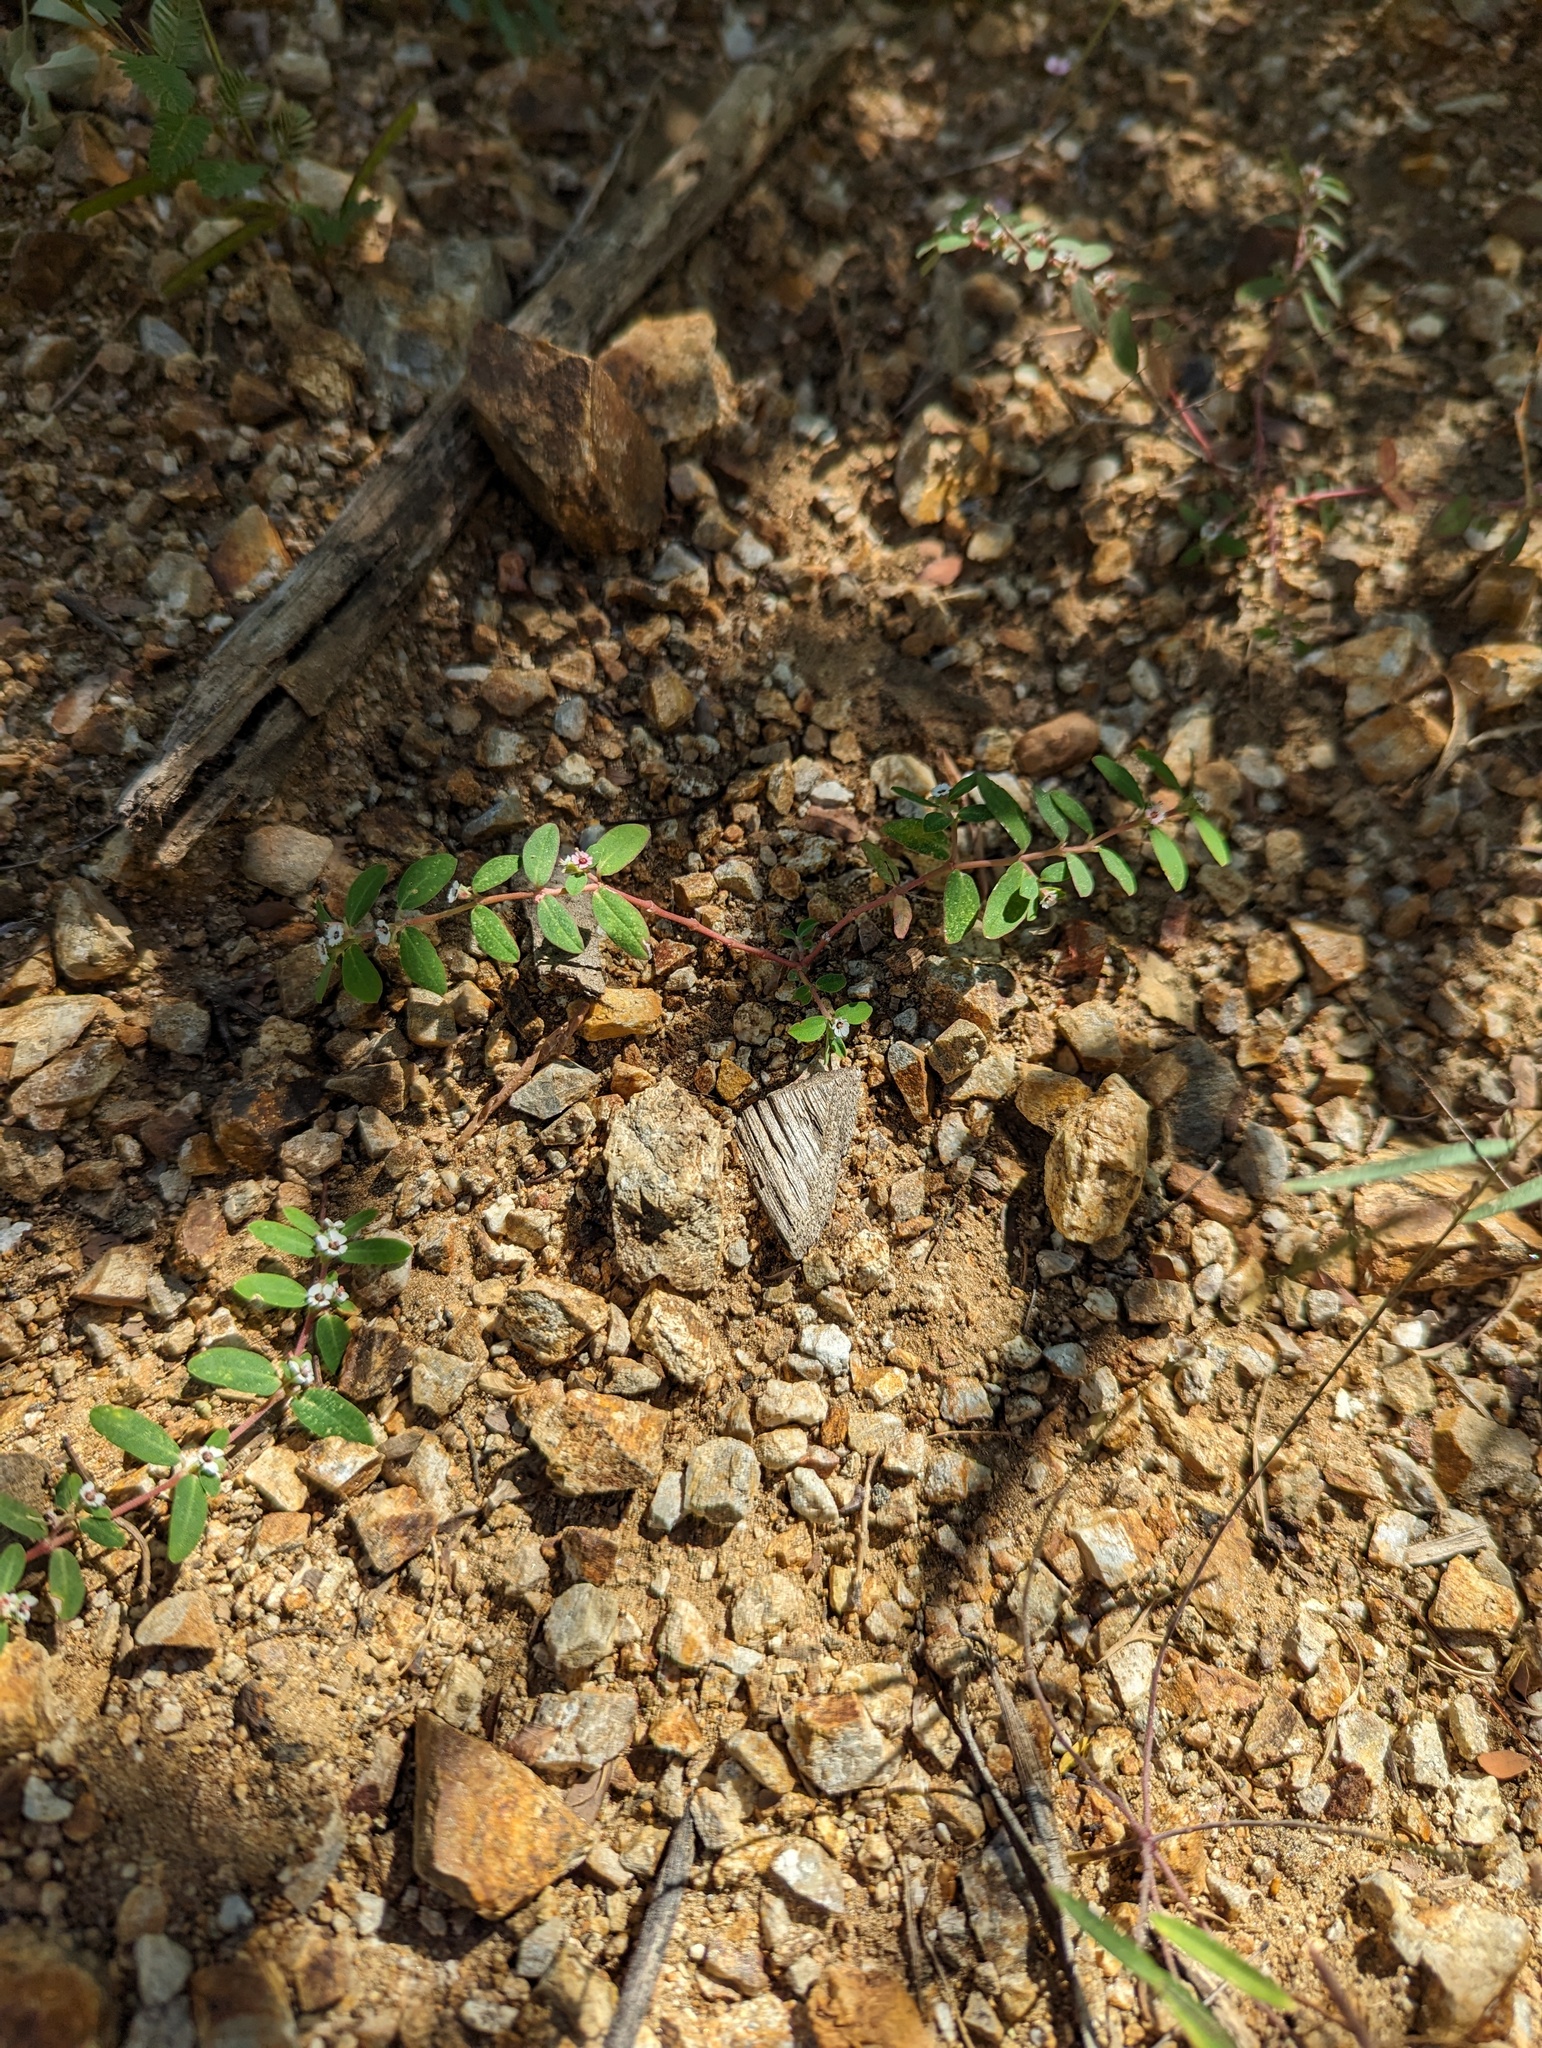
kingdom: Plantae
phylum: Tracheophyta
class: Magnoliopsida
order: Malpighiales
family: Euphorbiaceae
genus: Euphorbia
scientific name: Euphorbia pediculifera
